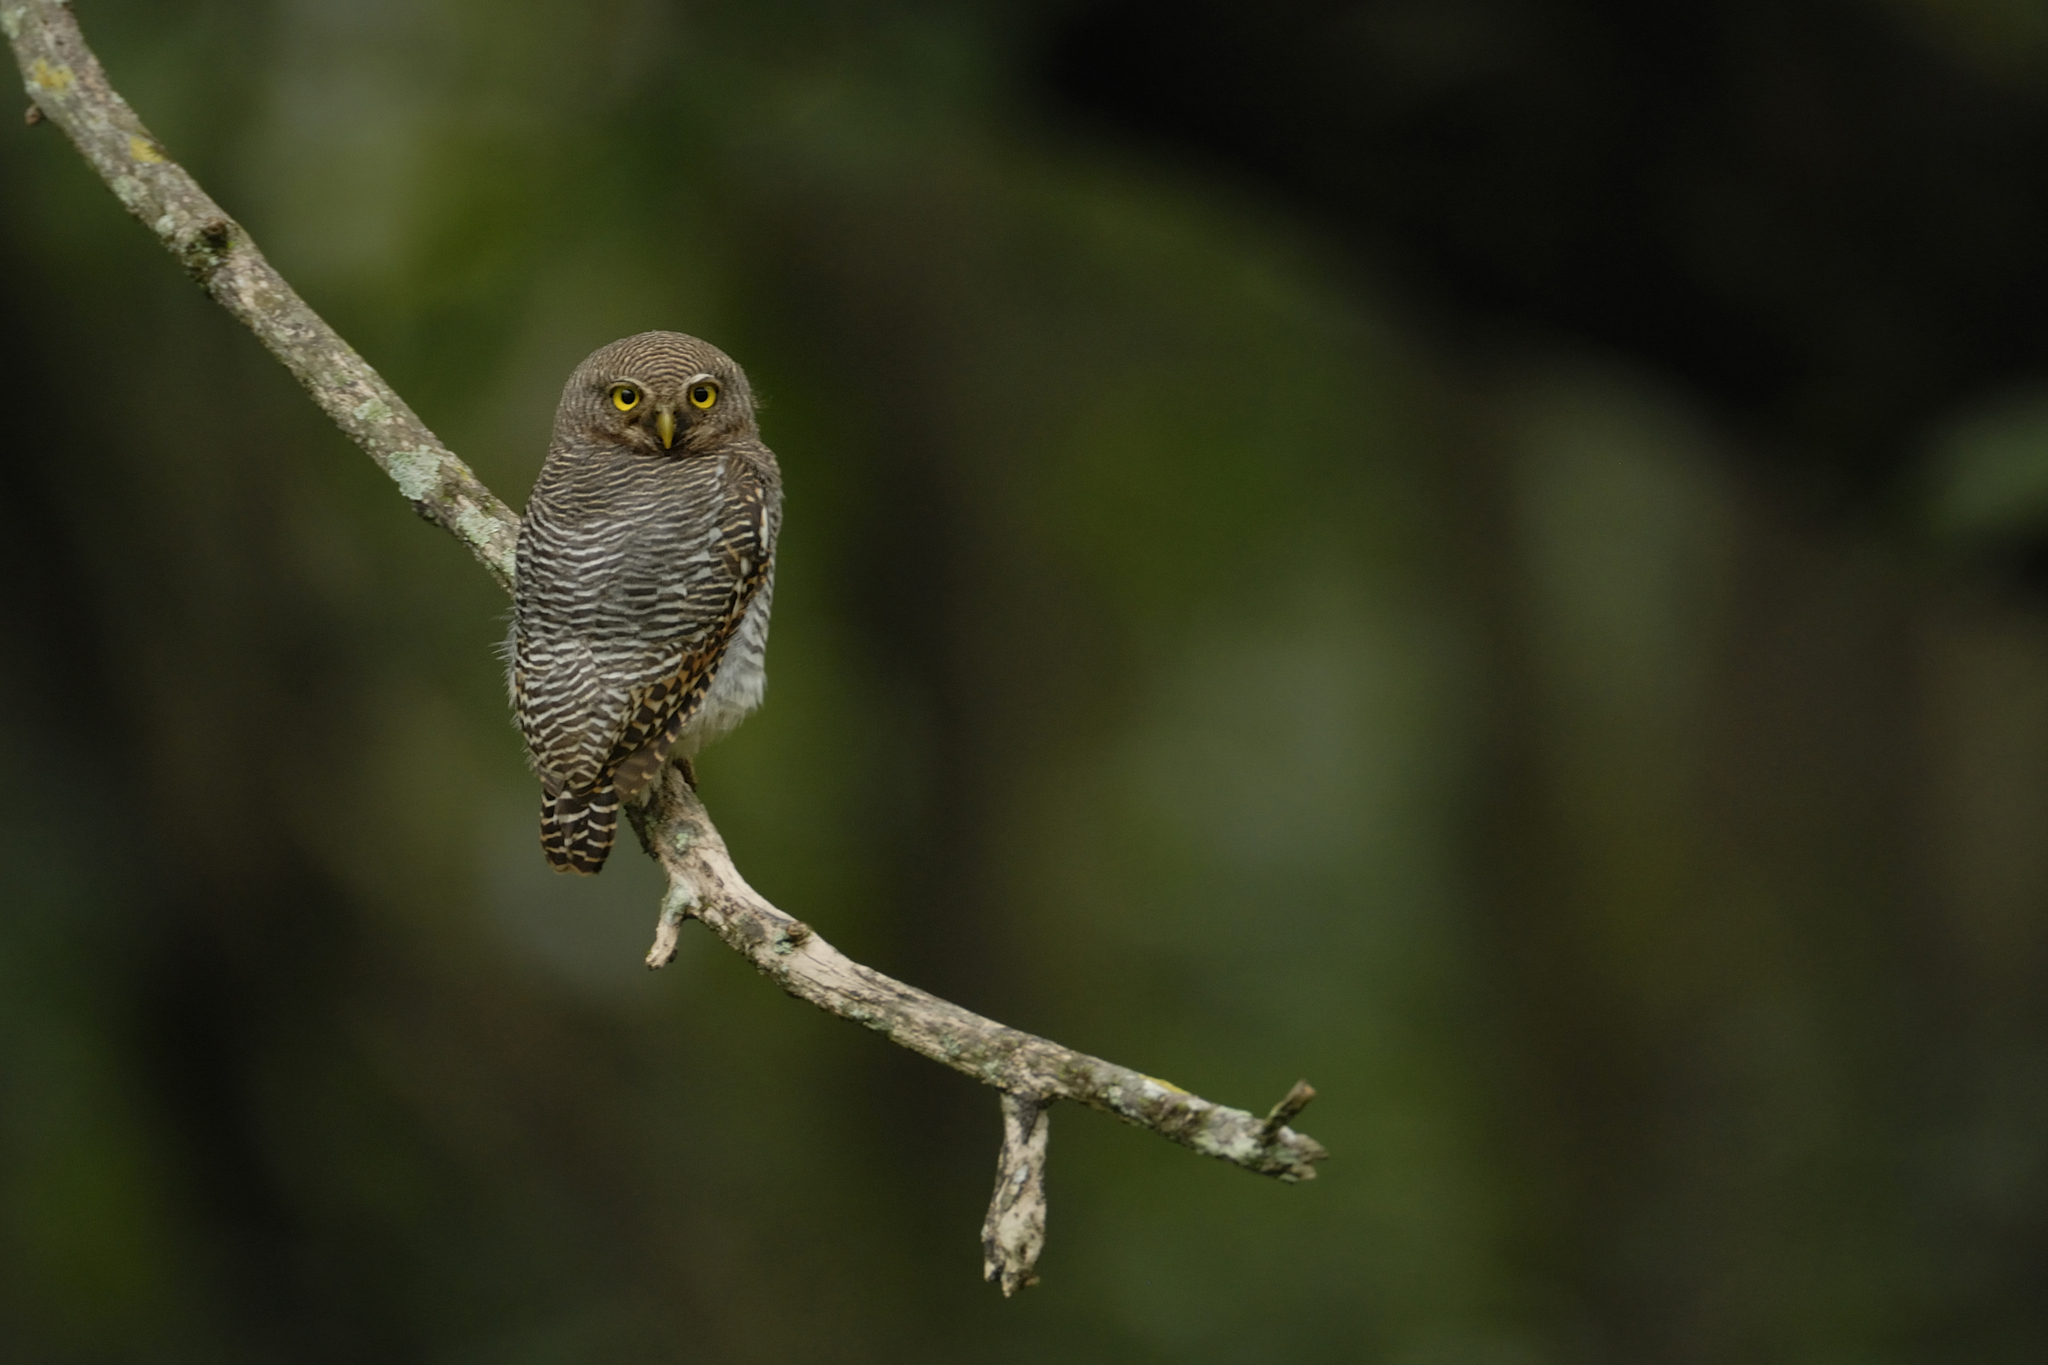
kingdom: Animalia
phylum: Chordata
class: Aves
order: Strigiformes
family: Strigidae
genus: Glaucidium
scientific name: Glaucidium radiatum
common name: Jungle owlet
